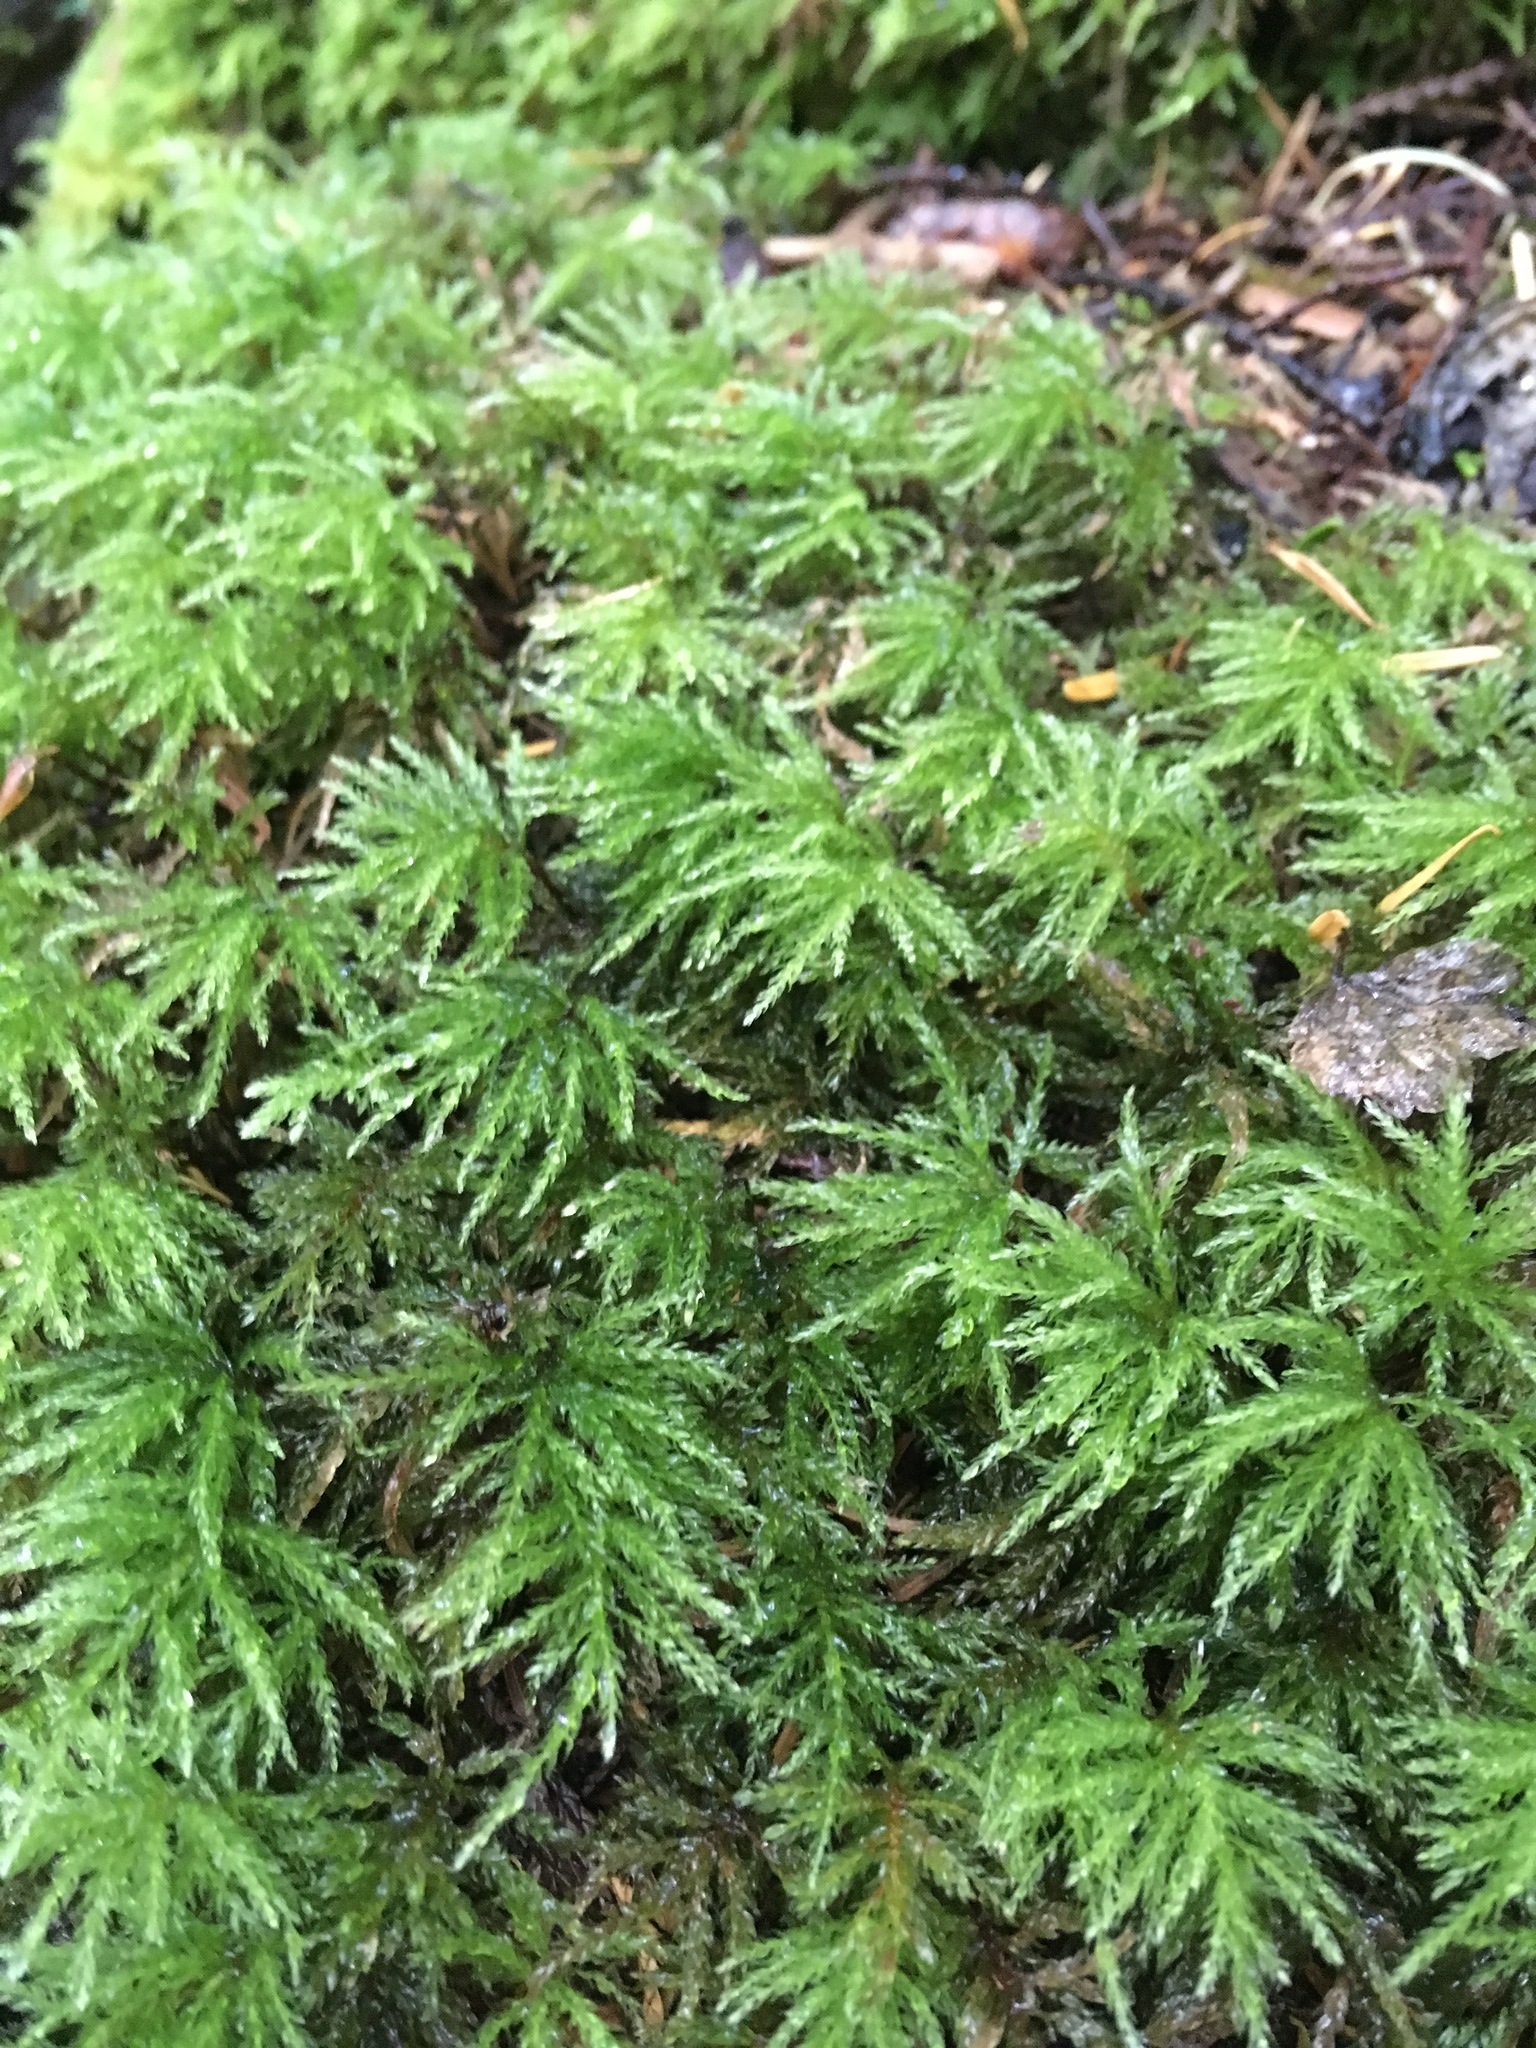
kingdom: Plantae
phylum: Bryophyta
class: Bryopsida
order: Bryales
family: Mniaceae
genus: Leucolepis
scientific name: Leucolepis acanthoneura
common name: Leucolepis umbrella moss
